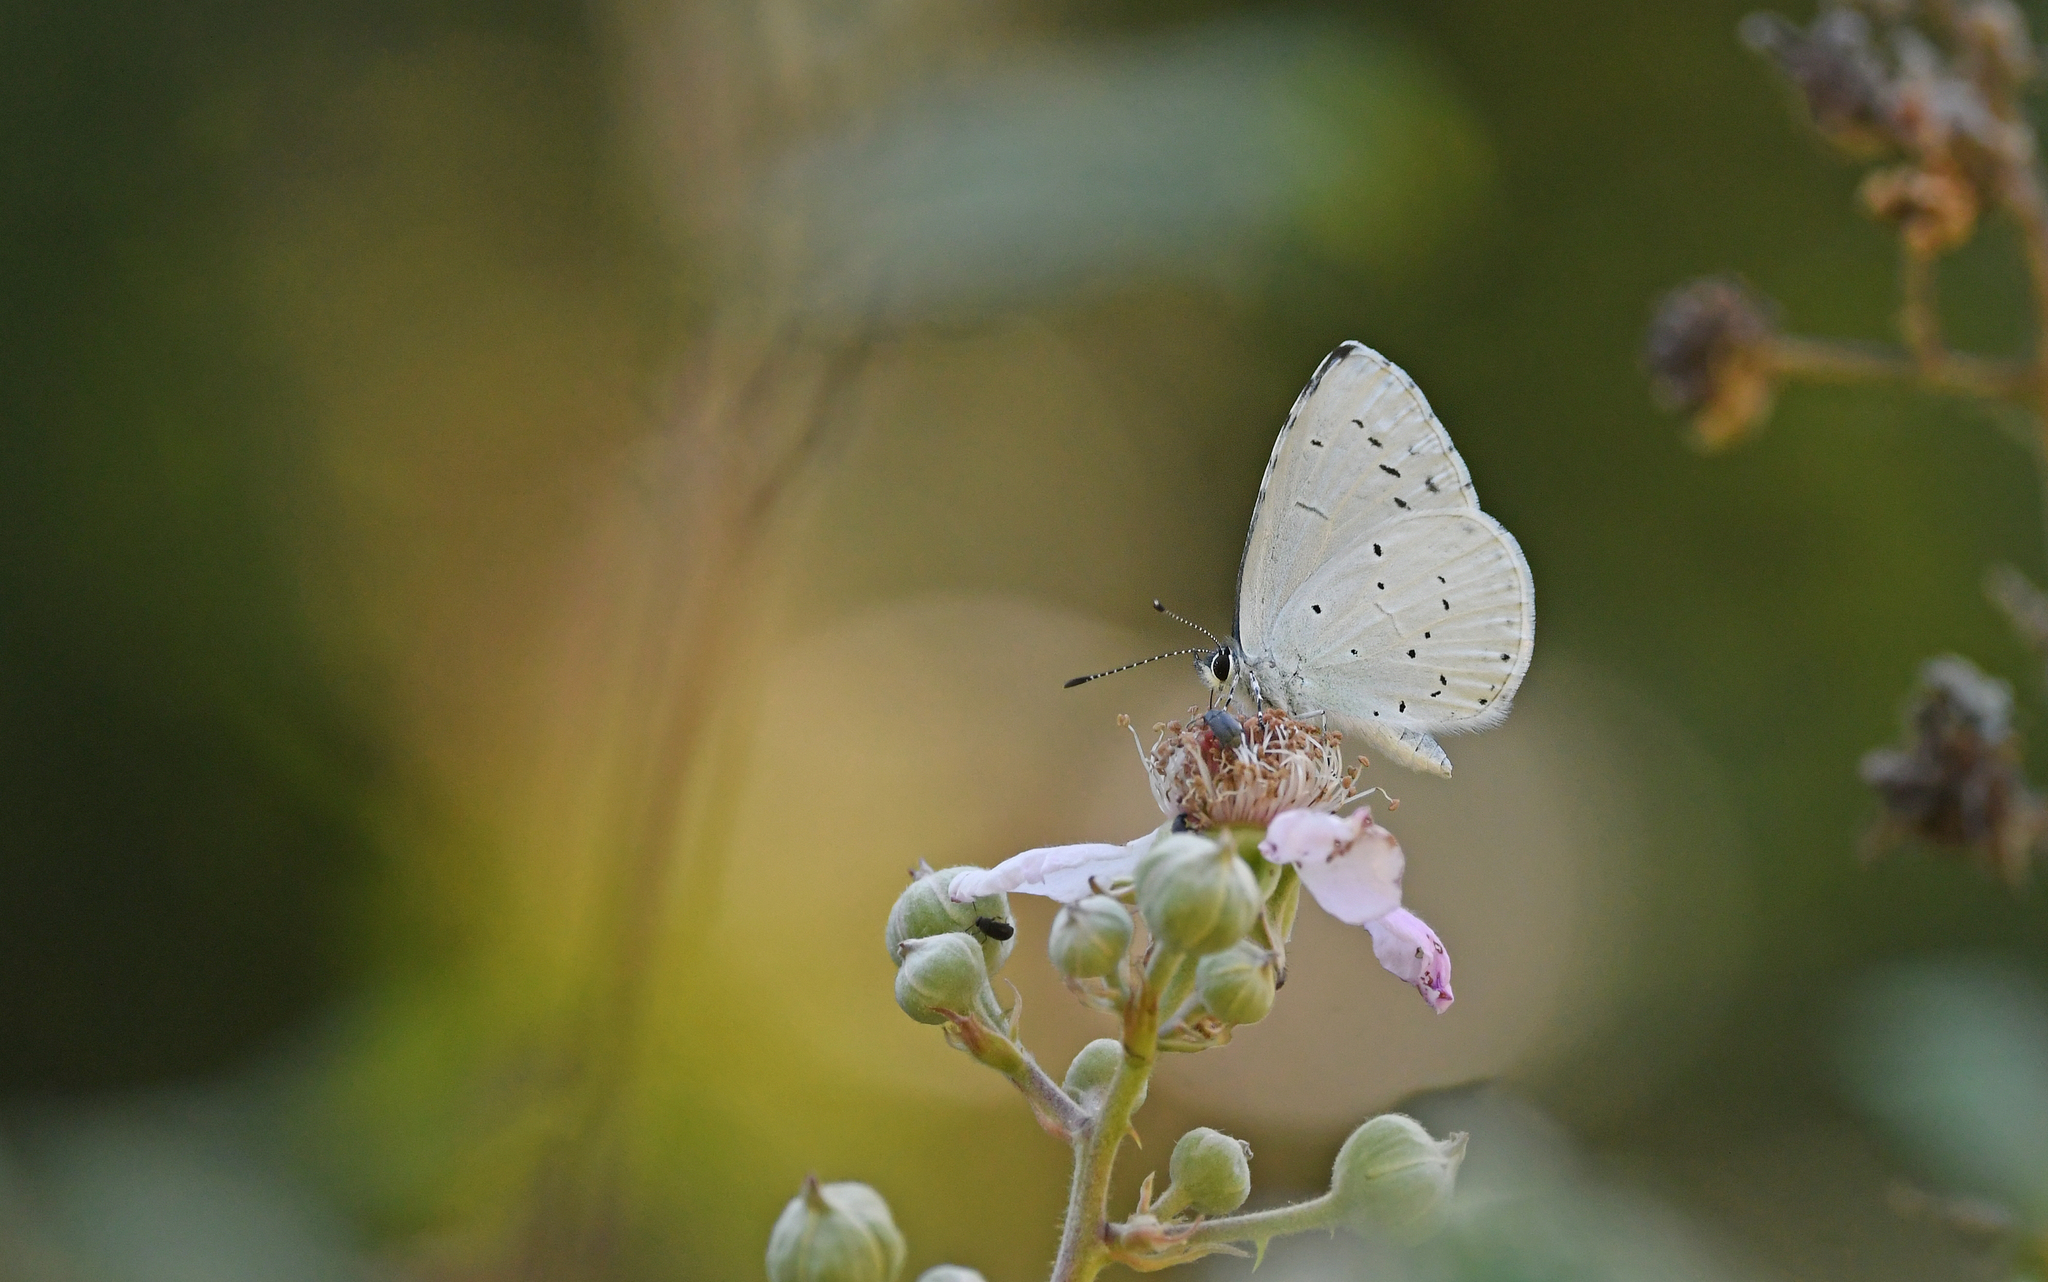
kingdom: Animalia
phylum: Arthropoda
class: Insecta
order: Lepidoptera
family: Lycaenidae
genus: Celastrina
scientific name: Celastrina argiolus
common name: Holly blue
